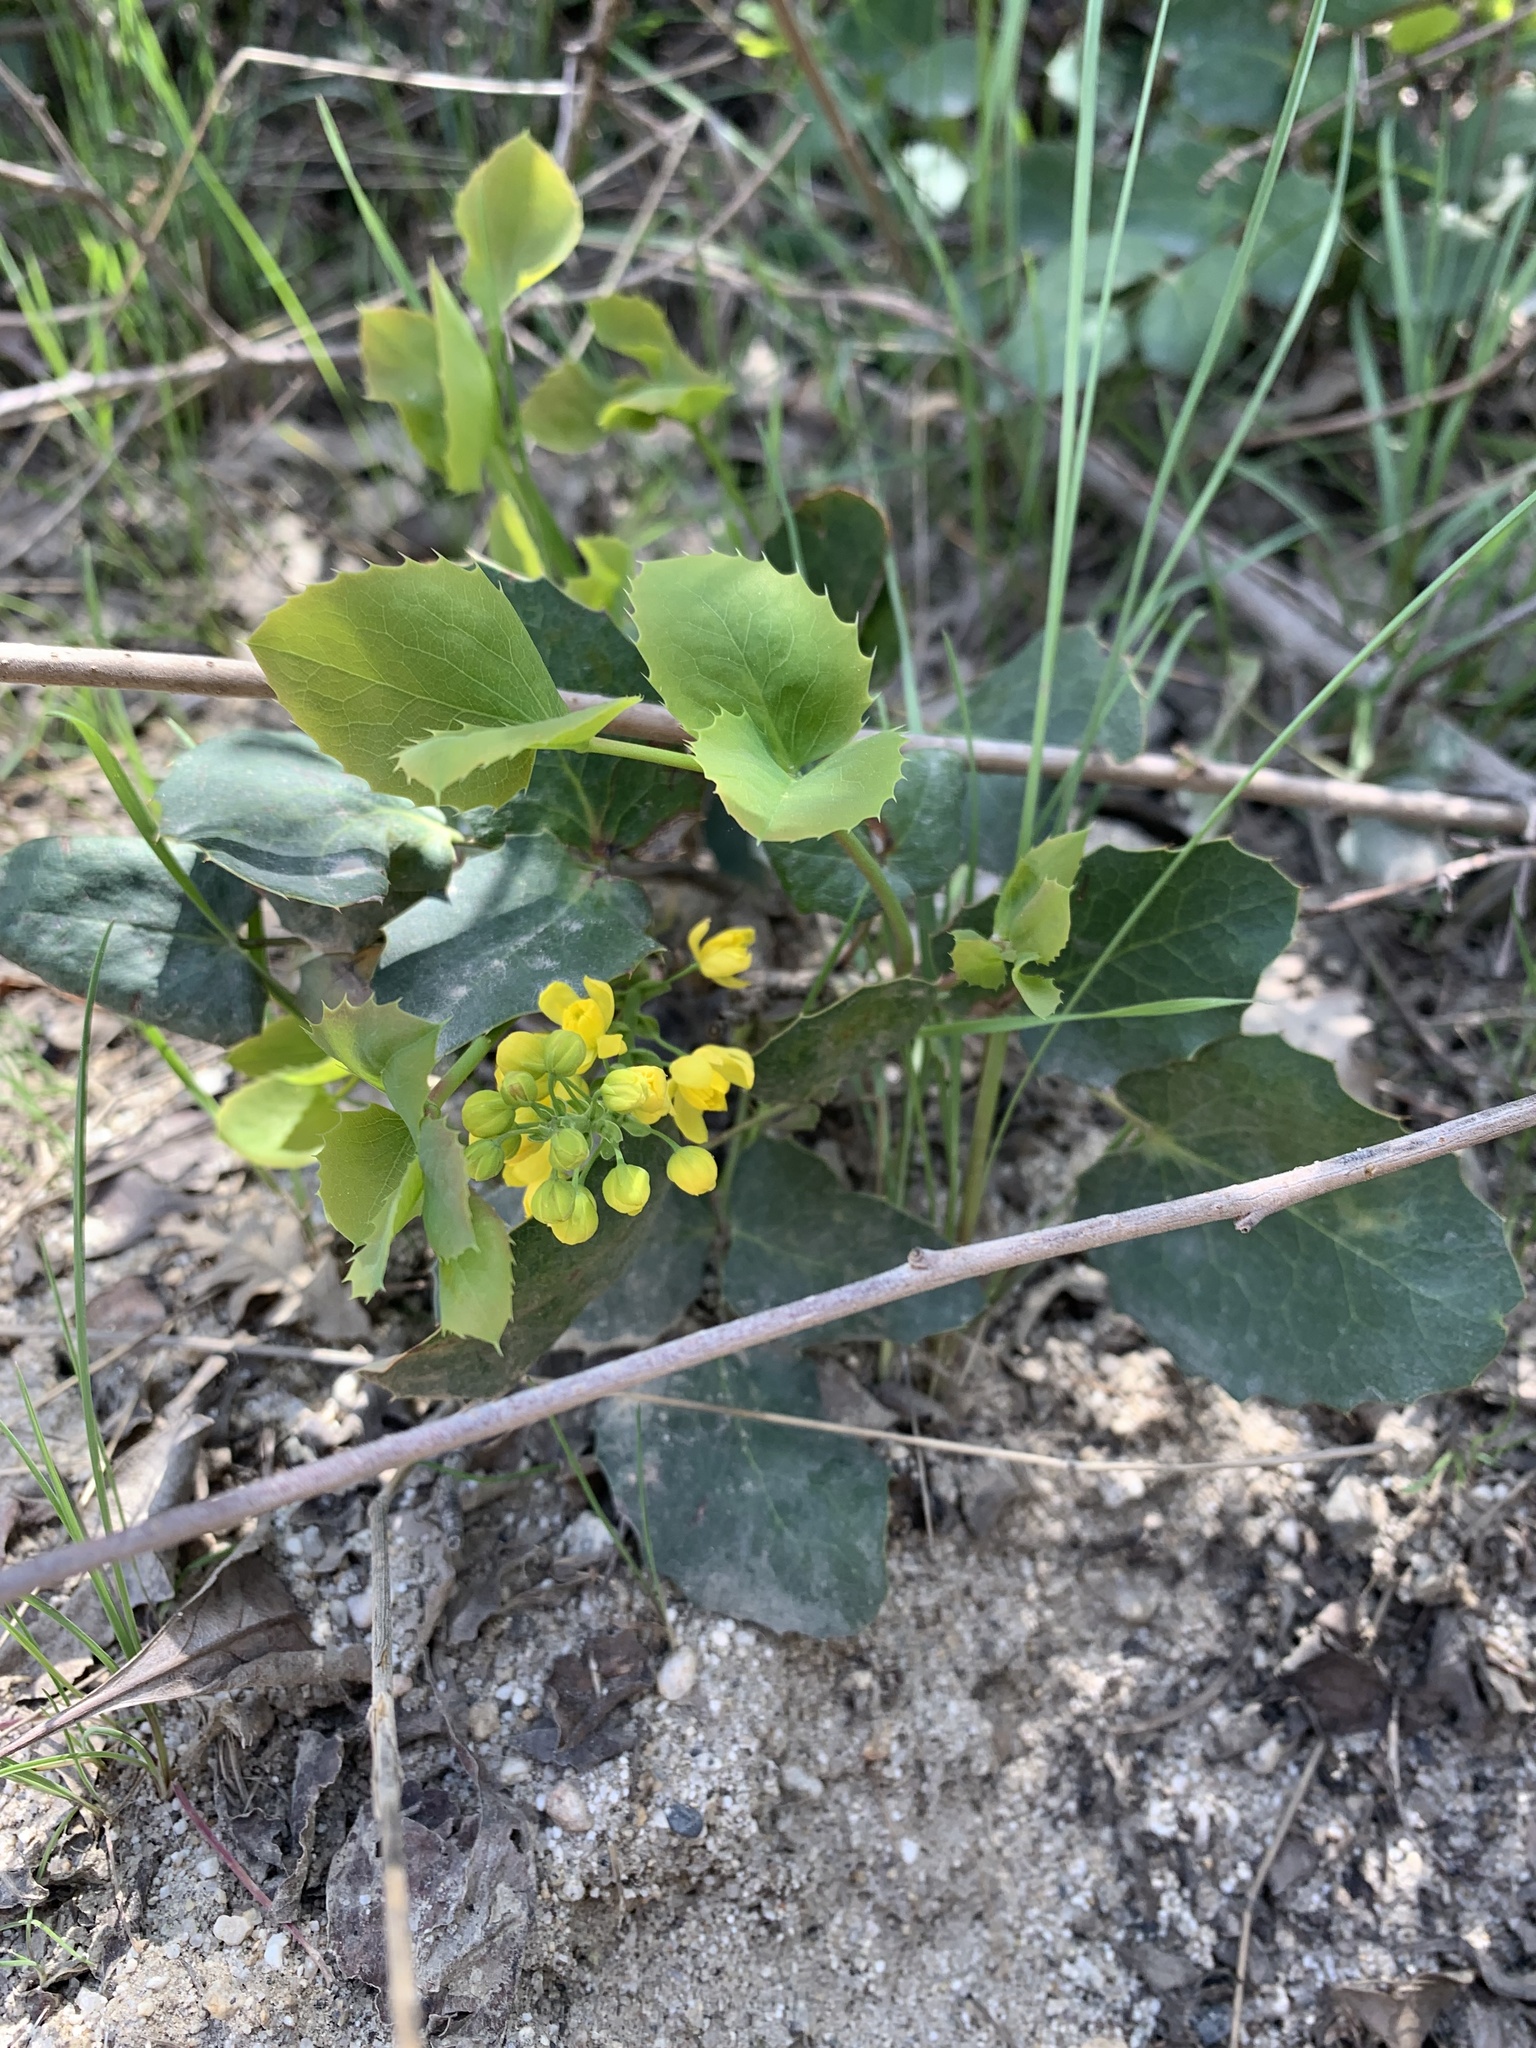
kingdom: Plantae
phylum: Tracheophyta
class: Magnoliopsida
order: Ranunculales
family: Berberidaceae
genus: Mahonia
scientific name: Mahonia repens
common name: Creeping oregon-grape
